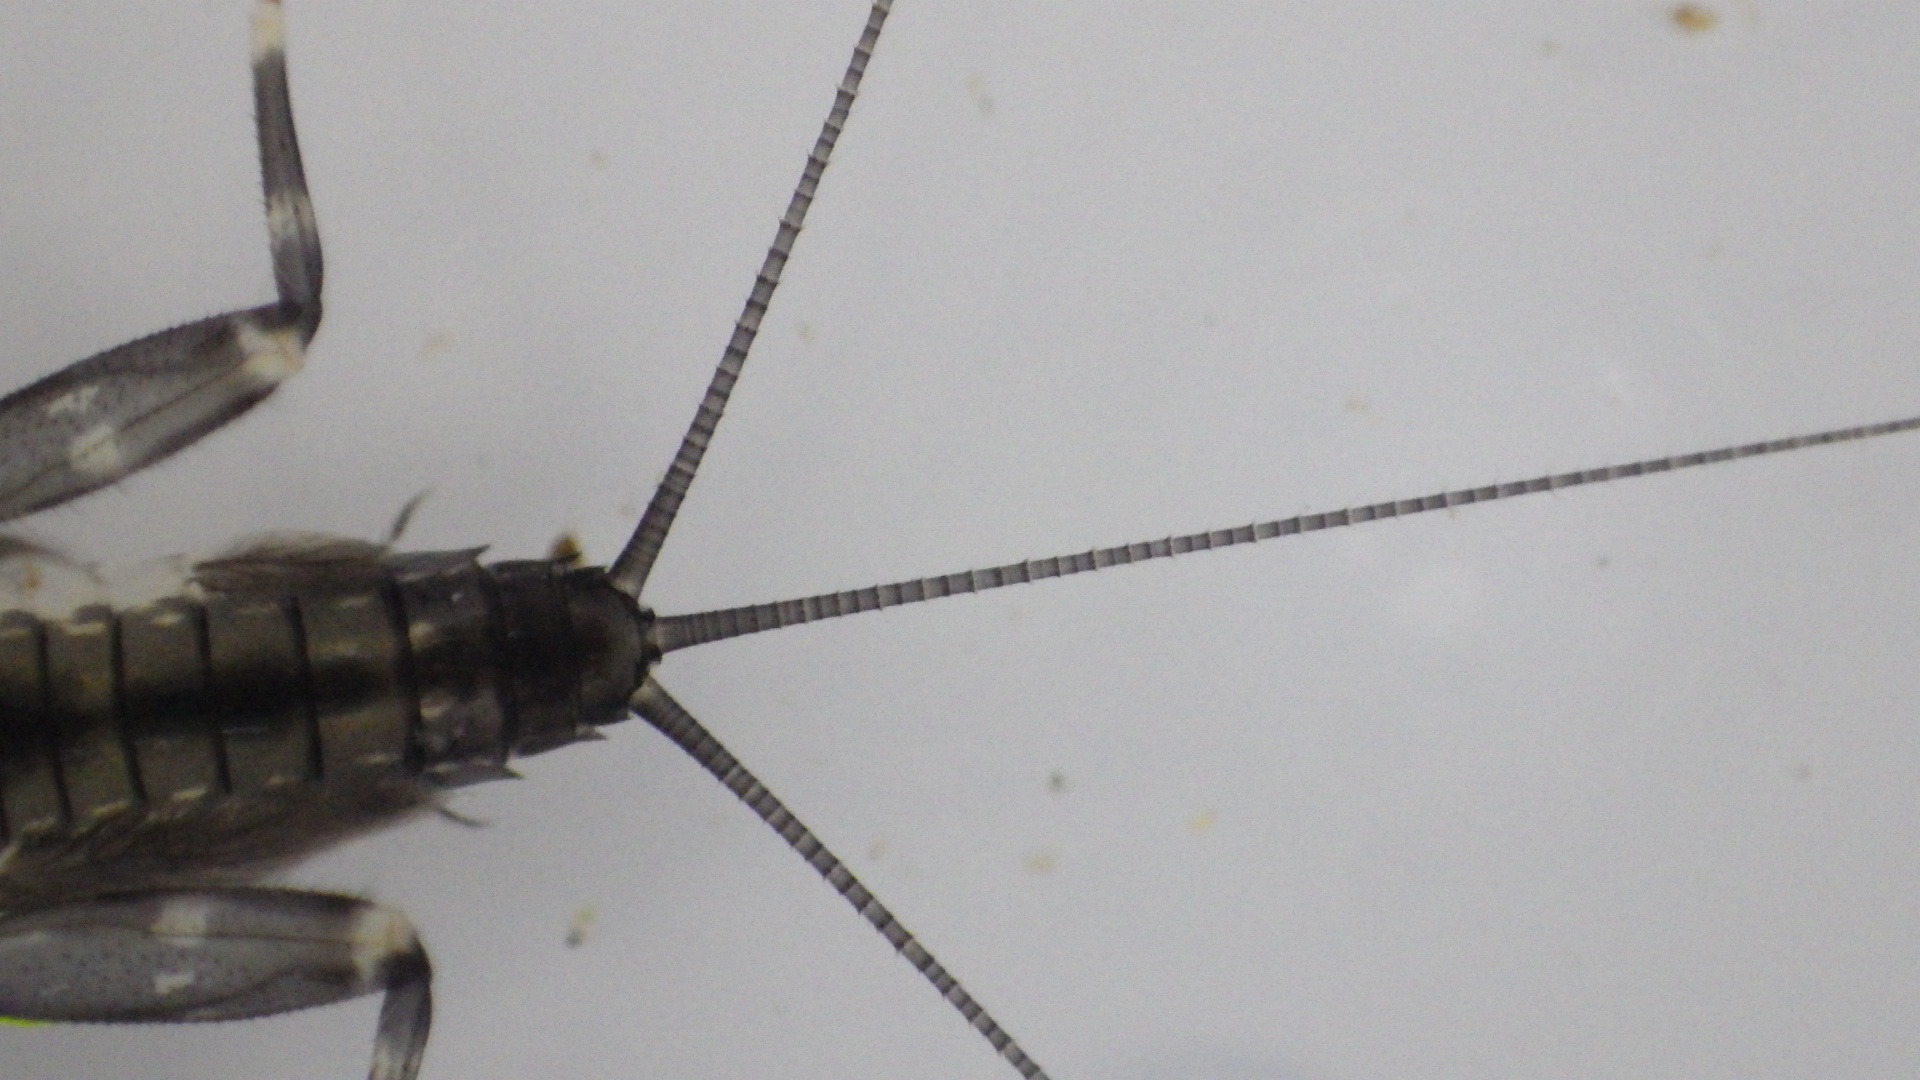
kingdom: Animalia
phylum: Arthropoda
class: Insecta
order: Ephemeroptera
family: Heptageniidae
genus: Stenacron
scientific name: Stenacron carolina
